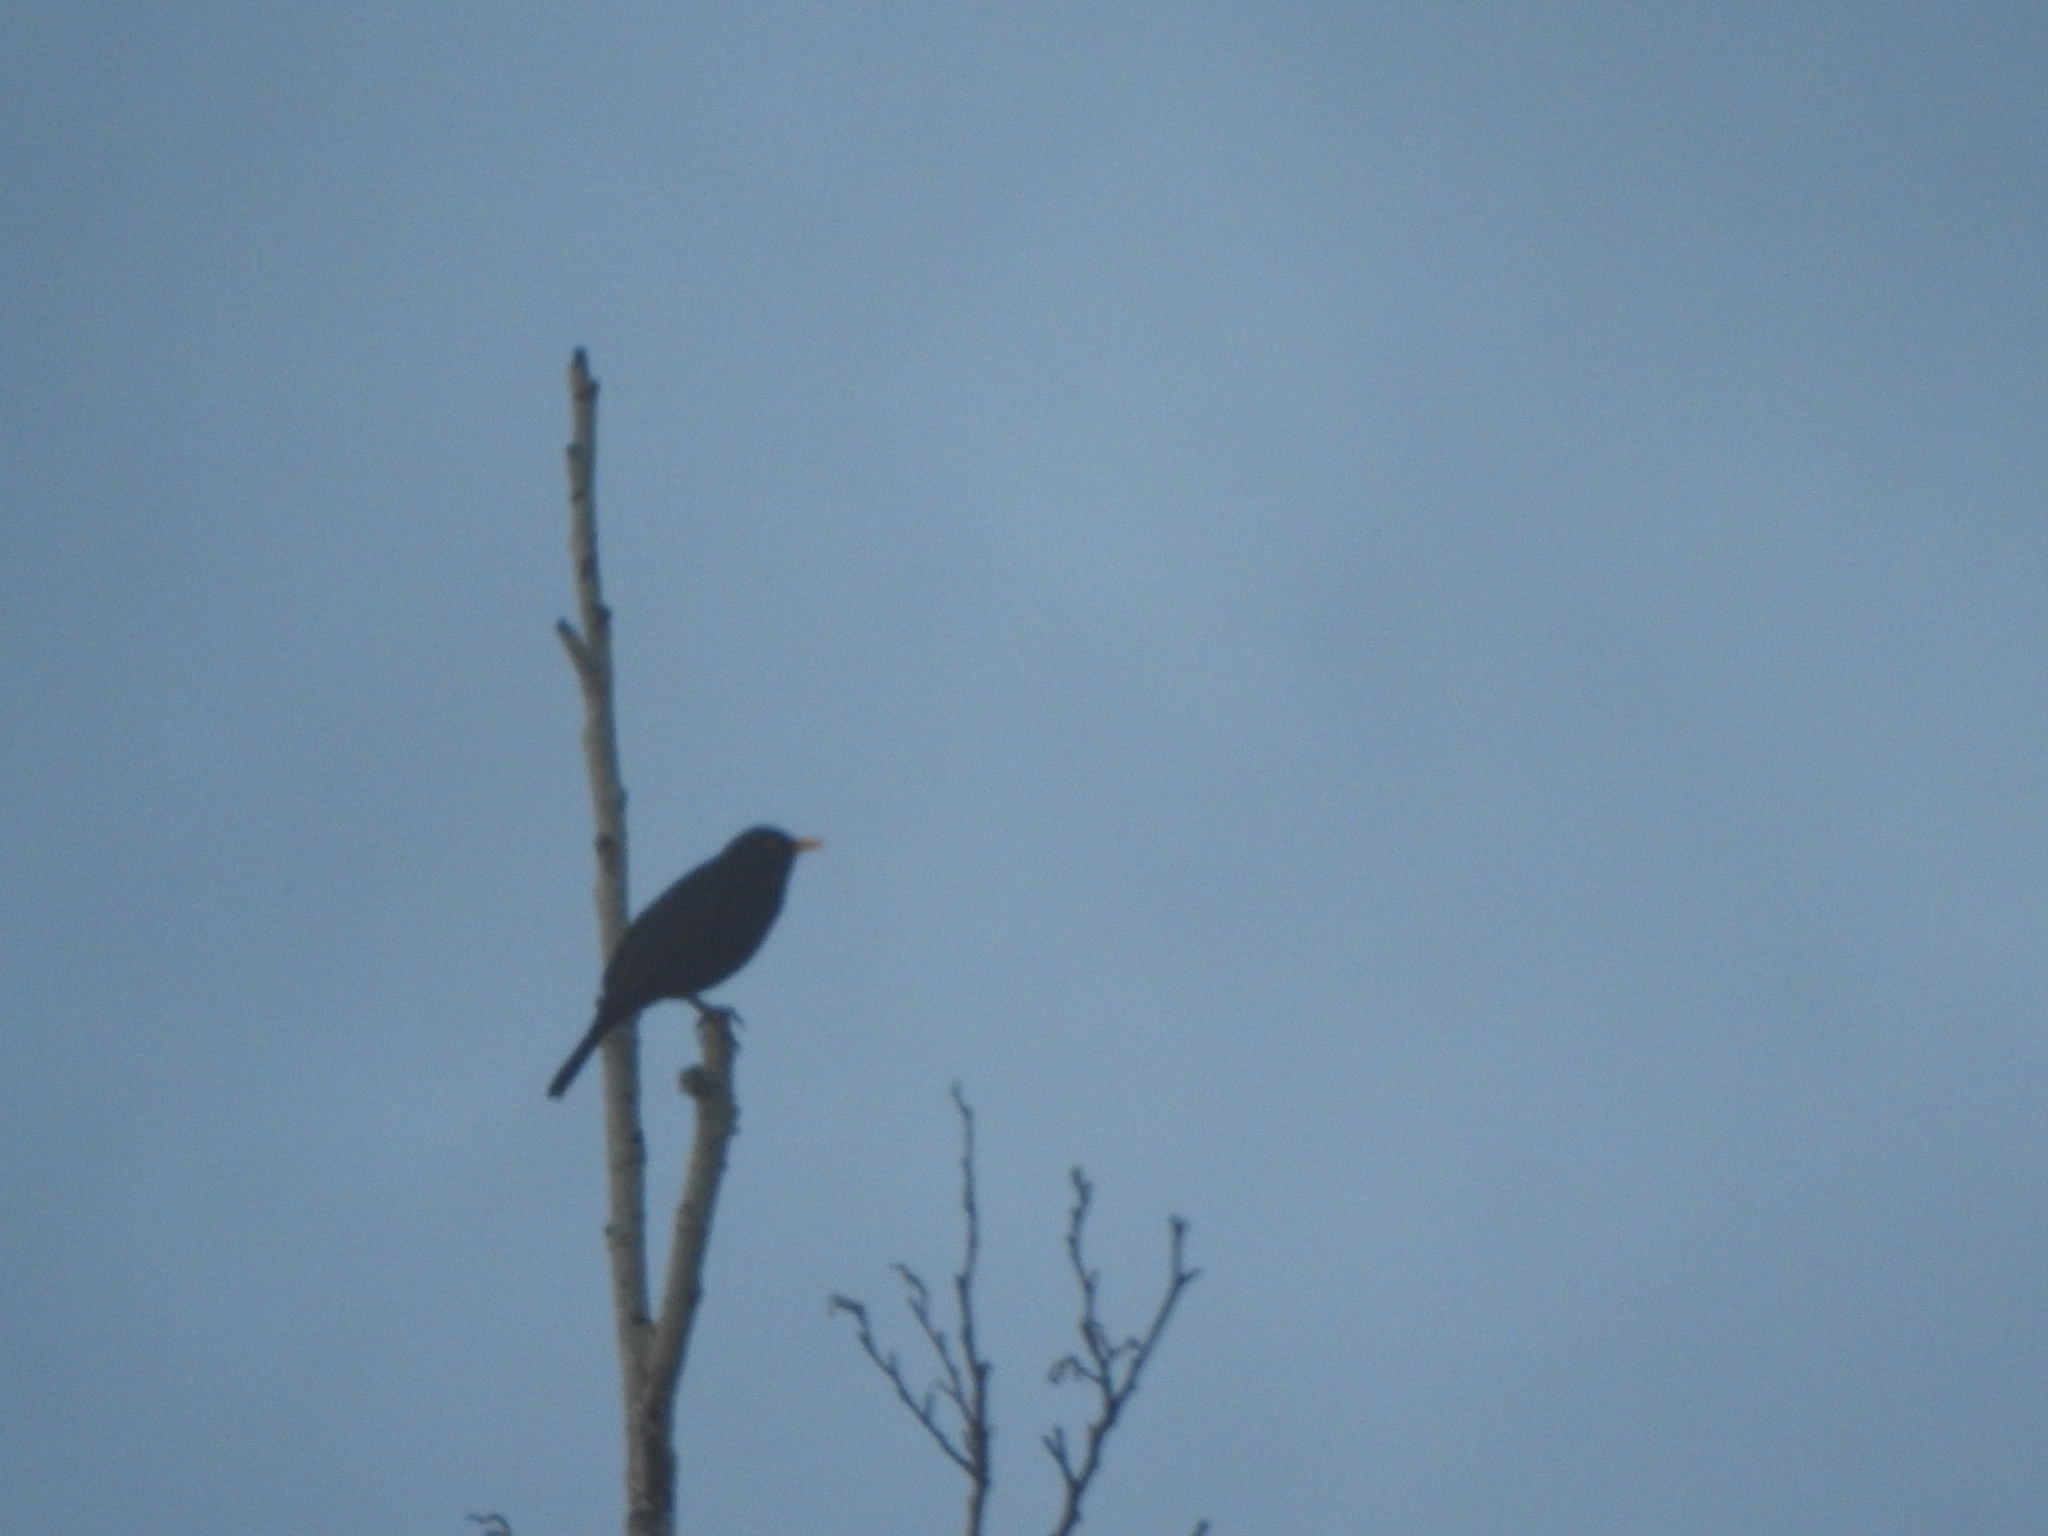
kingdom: Animalia
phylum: Chordata
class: Aves
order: Passeriformes
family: Turdidae
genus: Turdus
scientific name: Turdus merula
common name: Common blackbird
